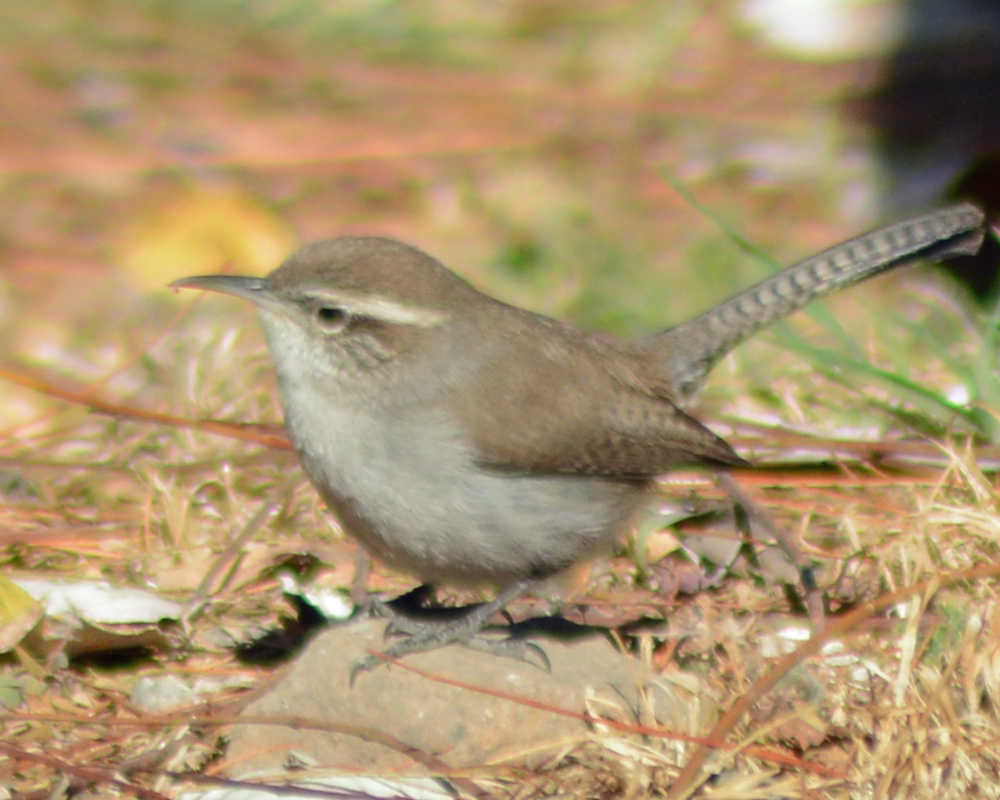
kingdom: Animalia
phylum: Chordata
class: Aves
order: Passeriformes
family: Troglodytidae
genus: Thryomanes
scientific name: Thryomanes bewickii
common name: Bewick's wren
